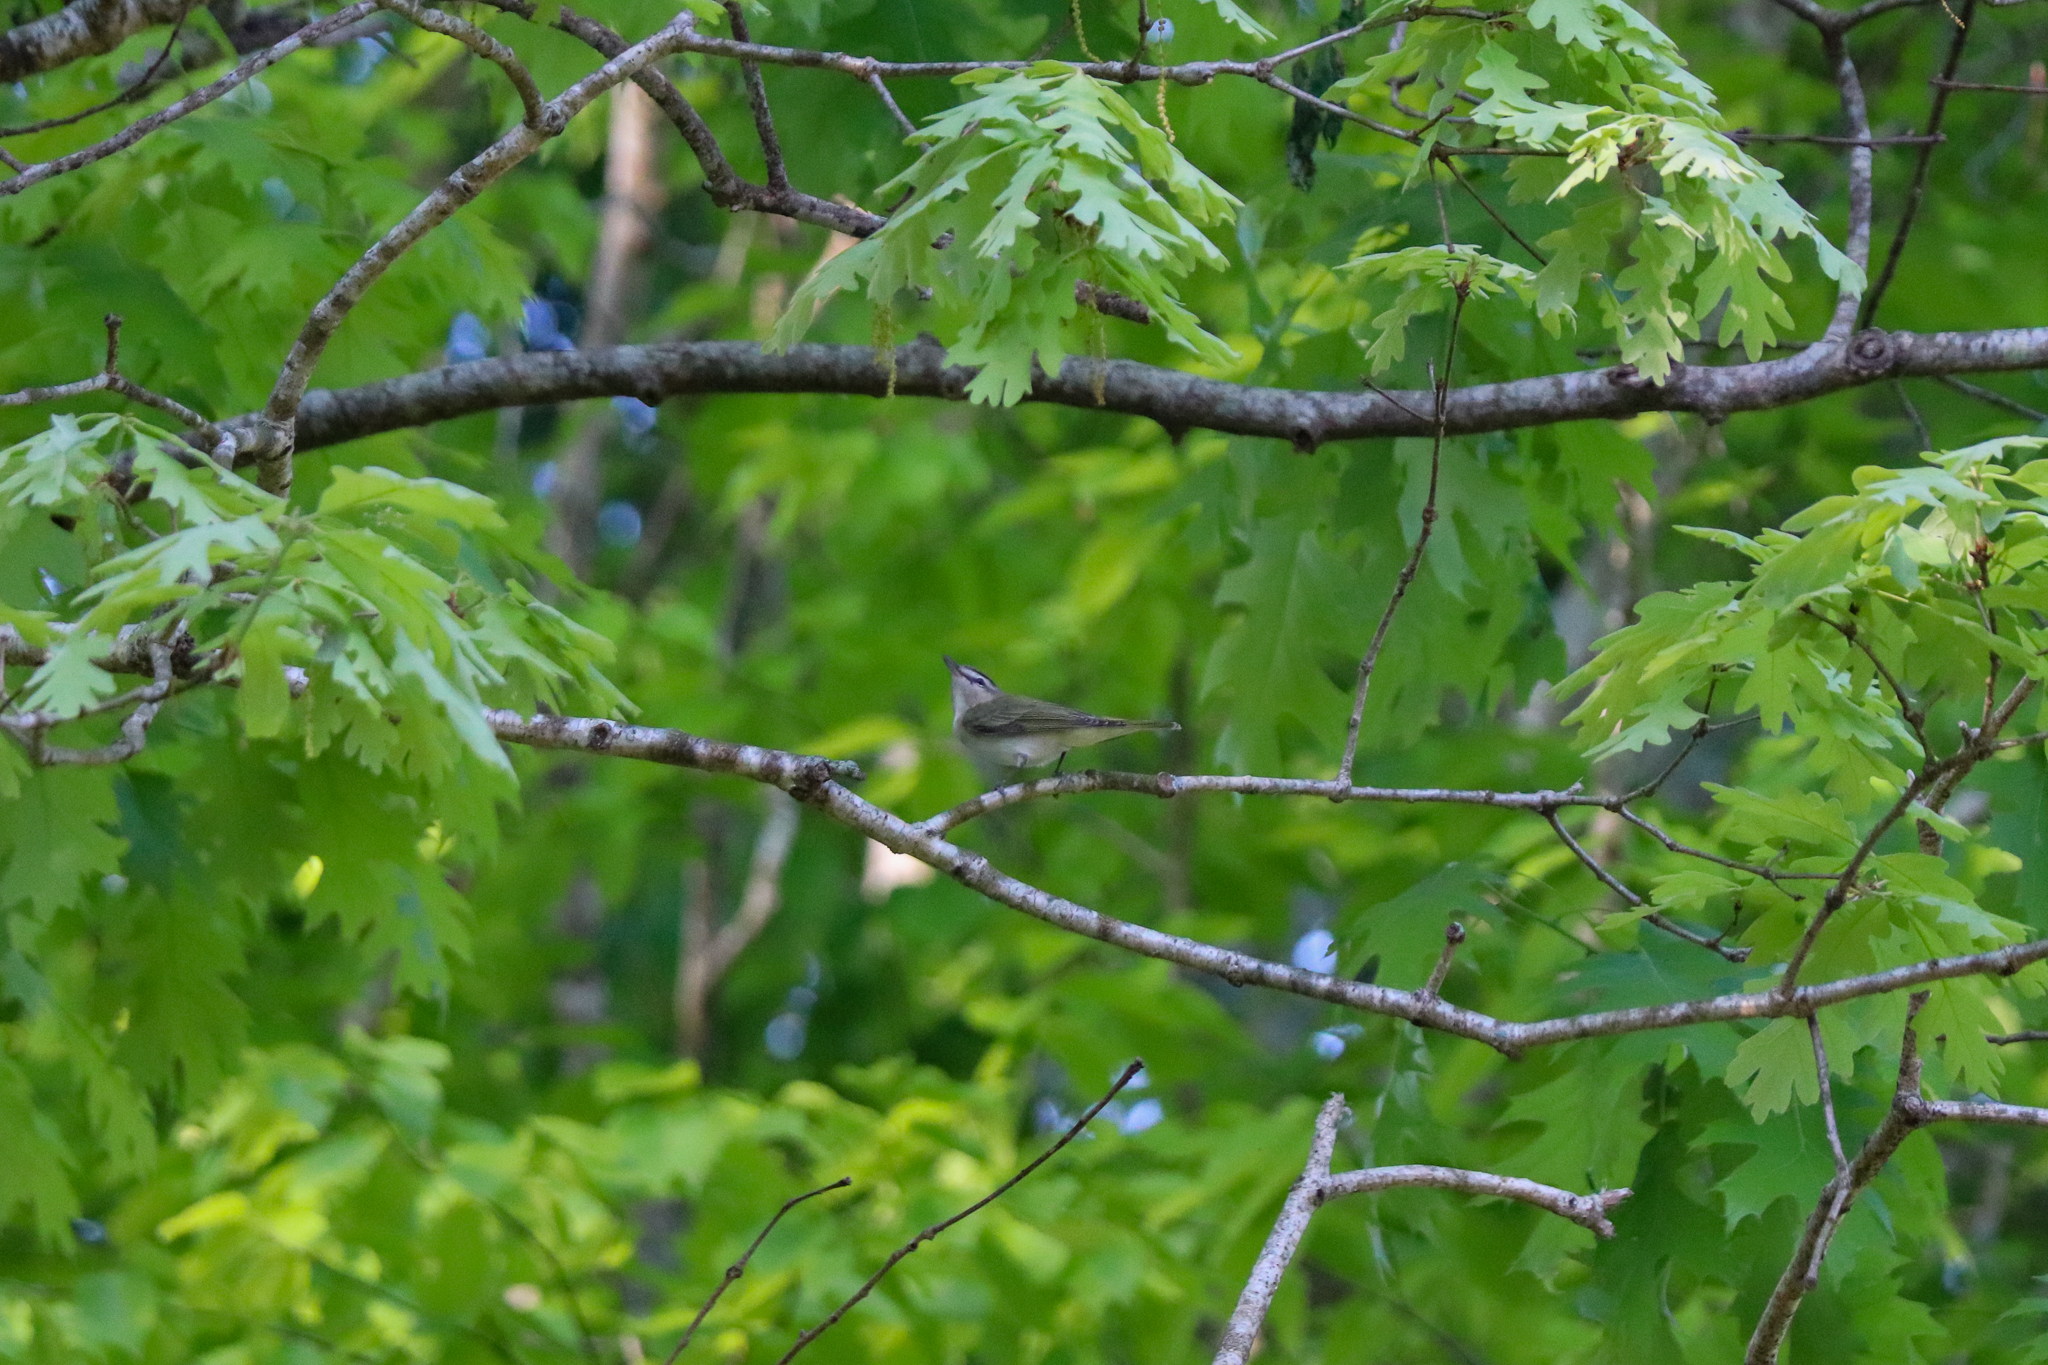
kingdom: Animalia
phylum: Chordata
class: Aves
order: Passeriformes
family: Vireonidae
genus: Vireo
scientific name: Vireo olivaceus
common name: Red-eyed vireo
